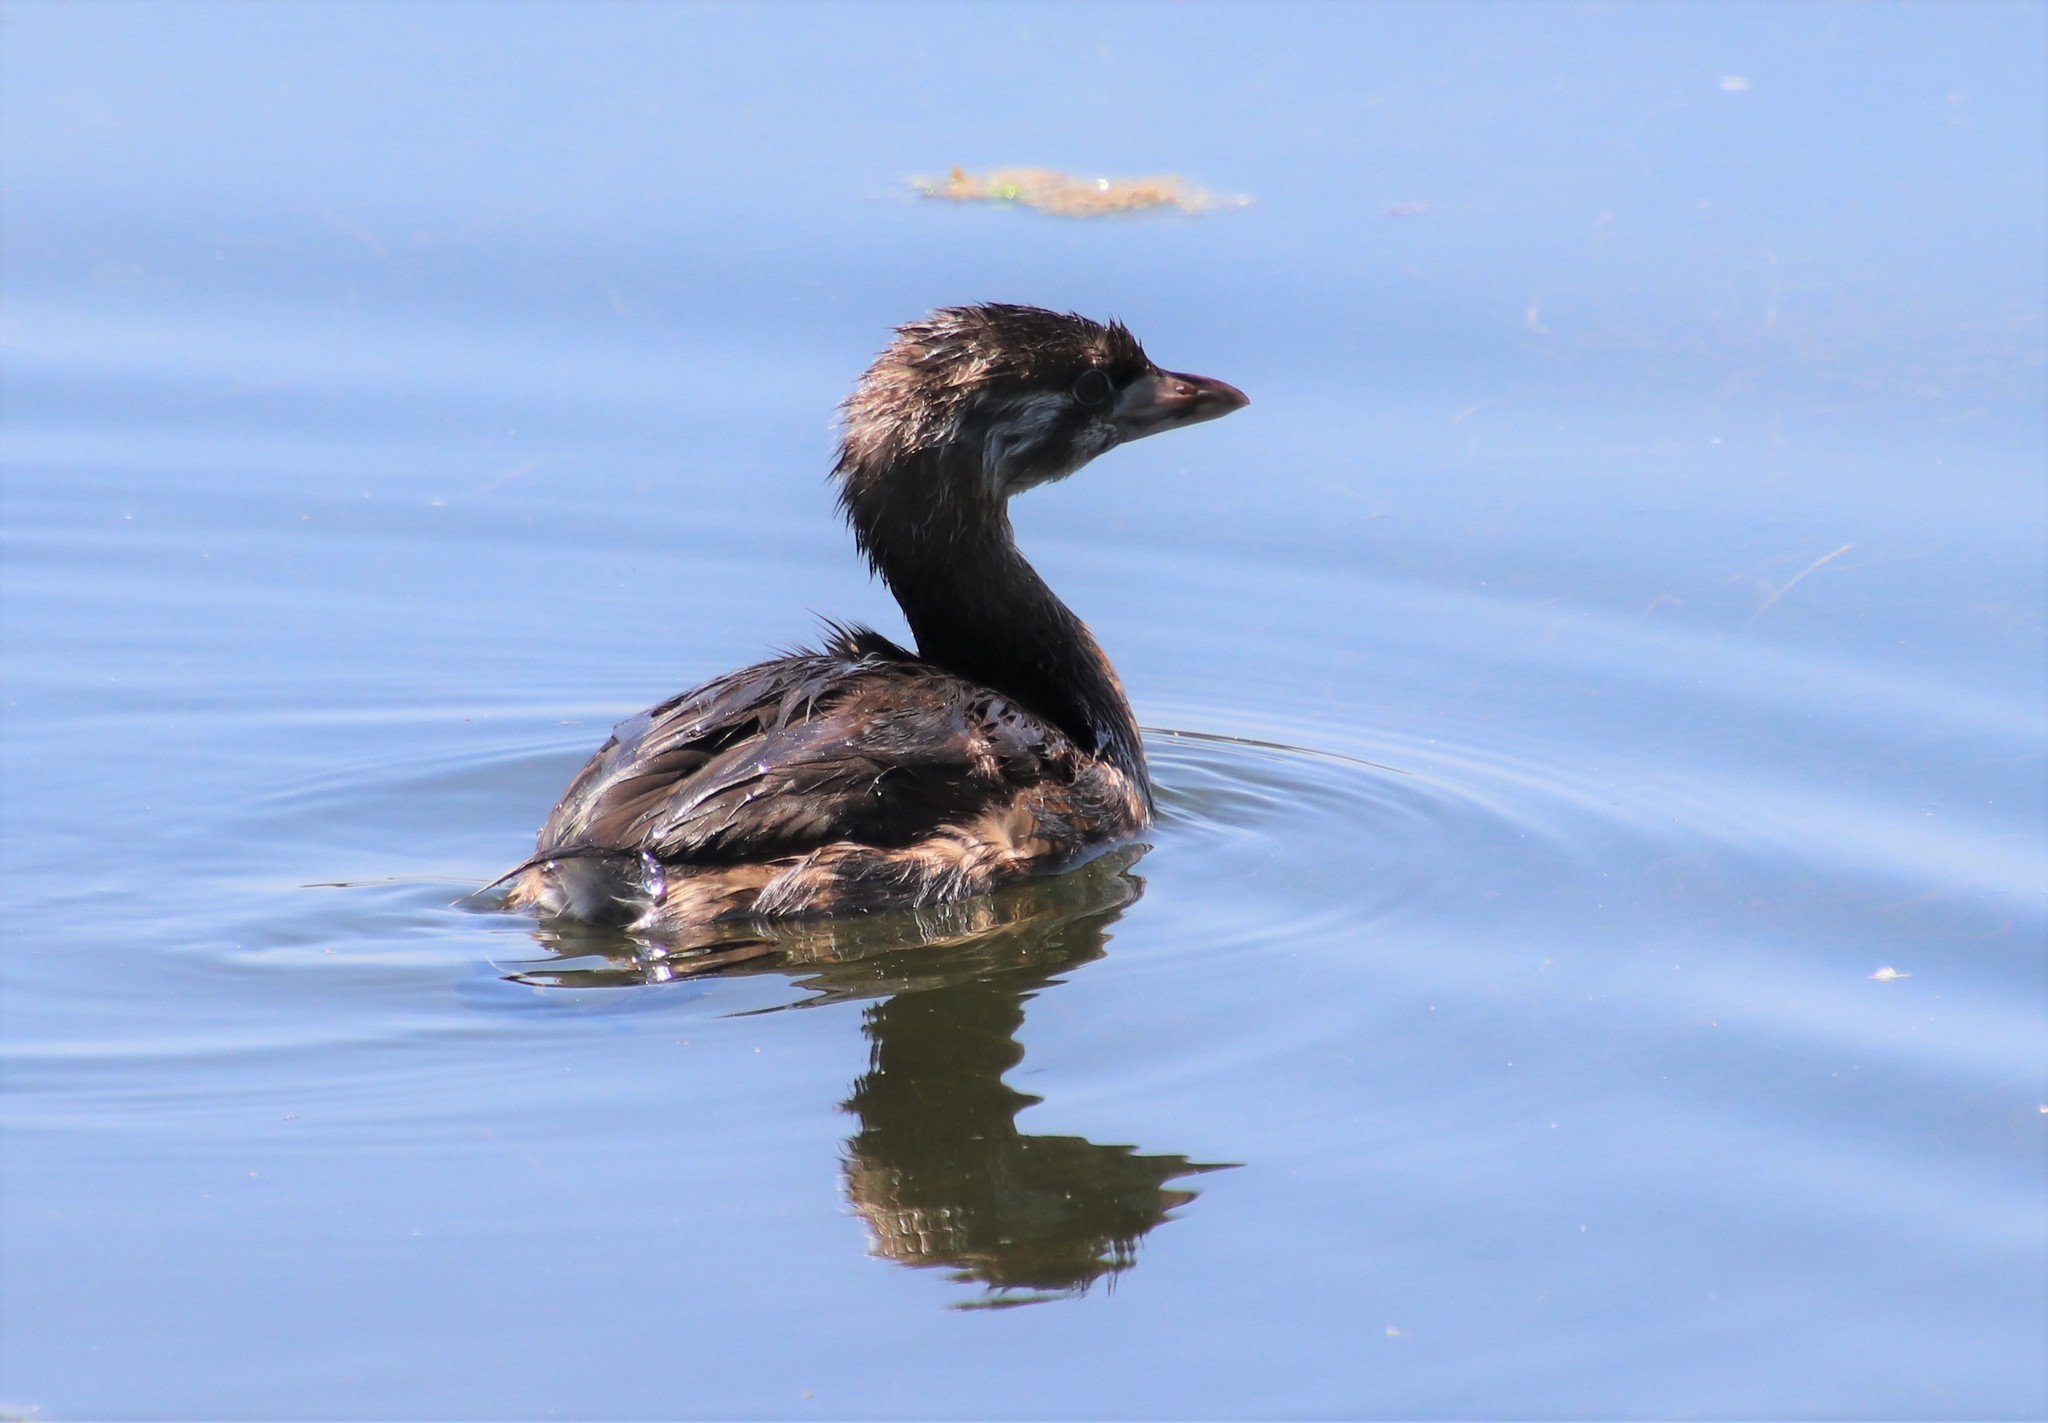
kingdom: Animalia
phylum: Chordata
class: Aves
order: Podicipediformes
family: Podicipedidae
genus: Podilymbus
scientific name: Podilymbus podiceps
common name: Pied-billed grebe
